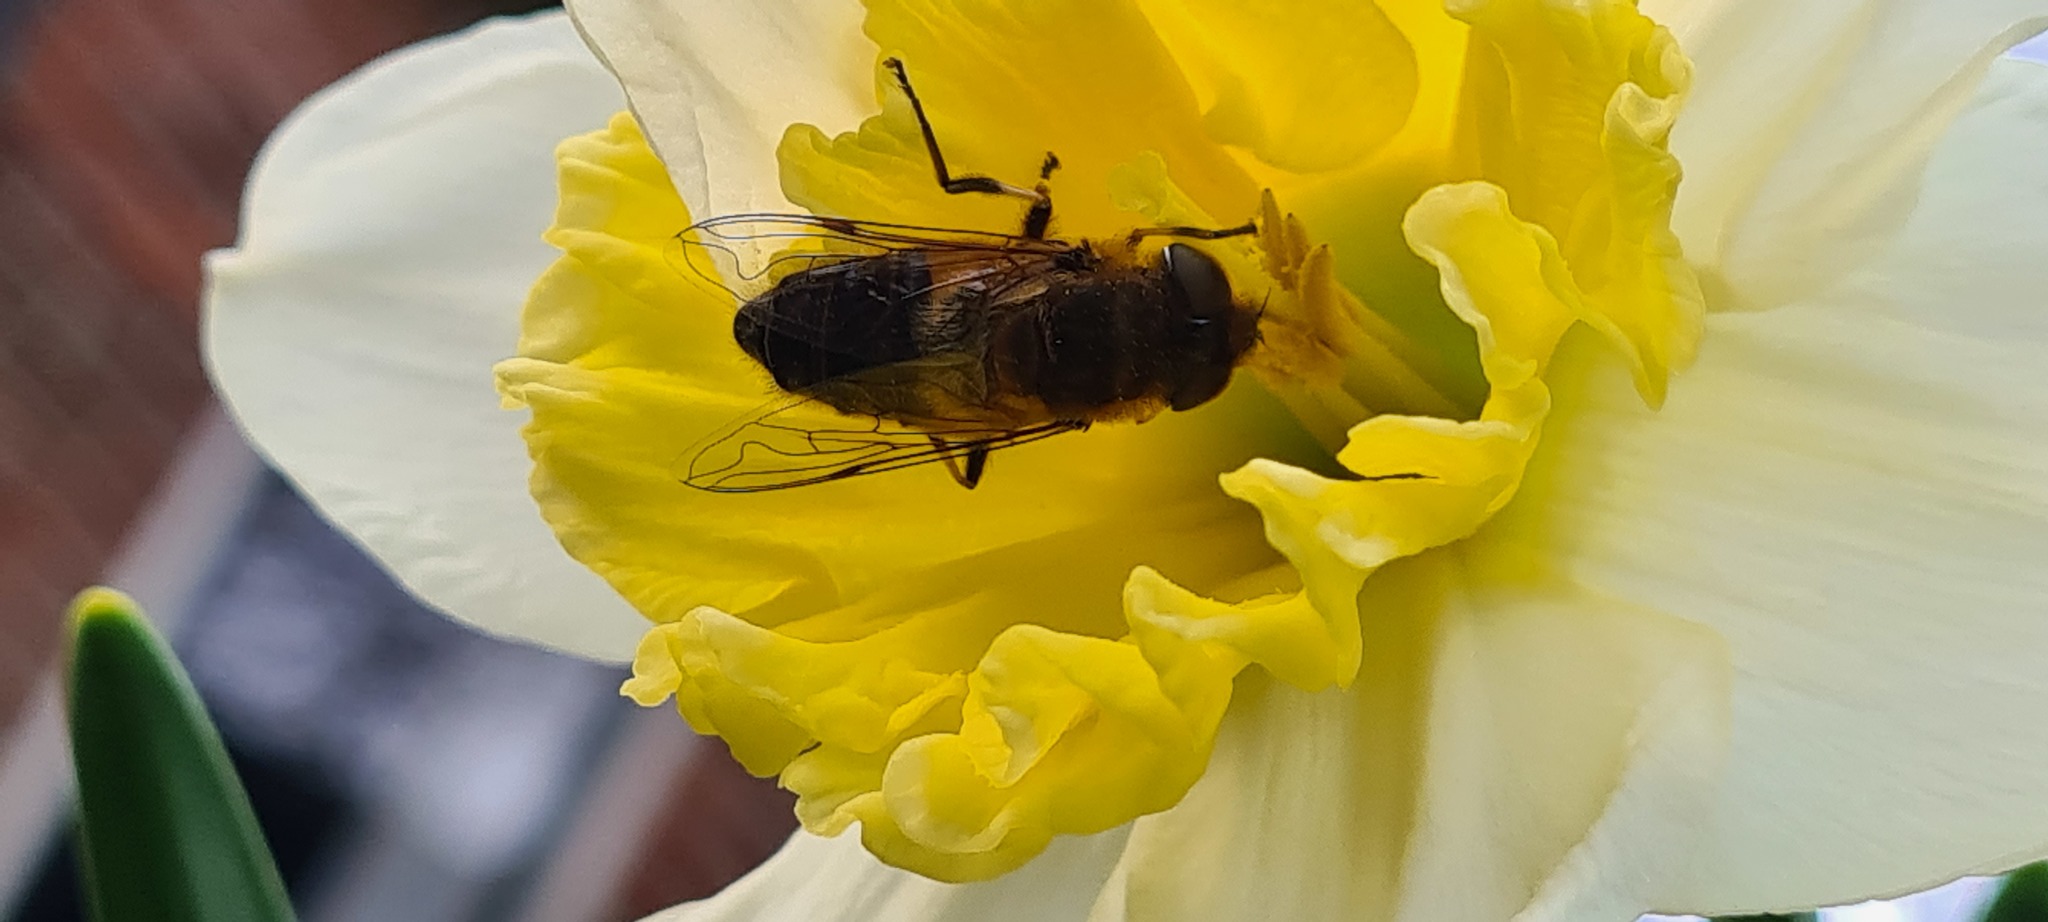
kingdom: Animalia
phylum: Arthropoda
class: Insecta
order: Diptera
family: Syrphidae
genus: Eristalis
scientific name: Eristalis pertinax
